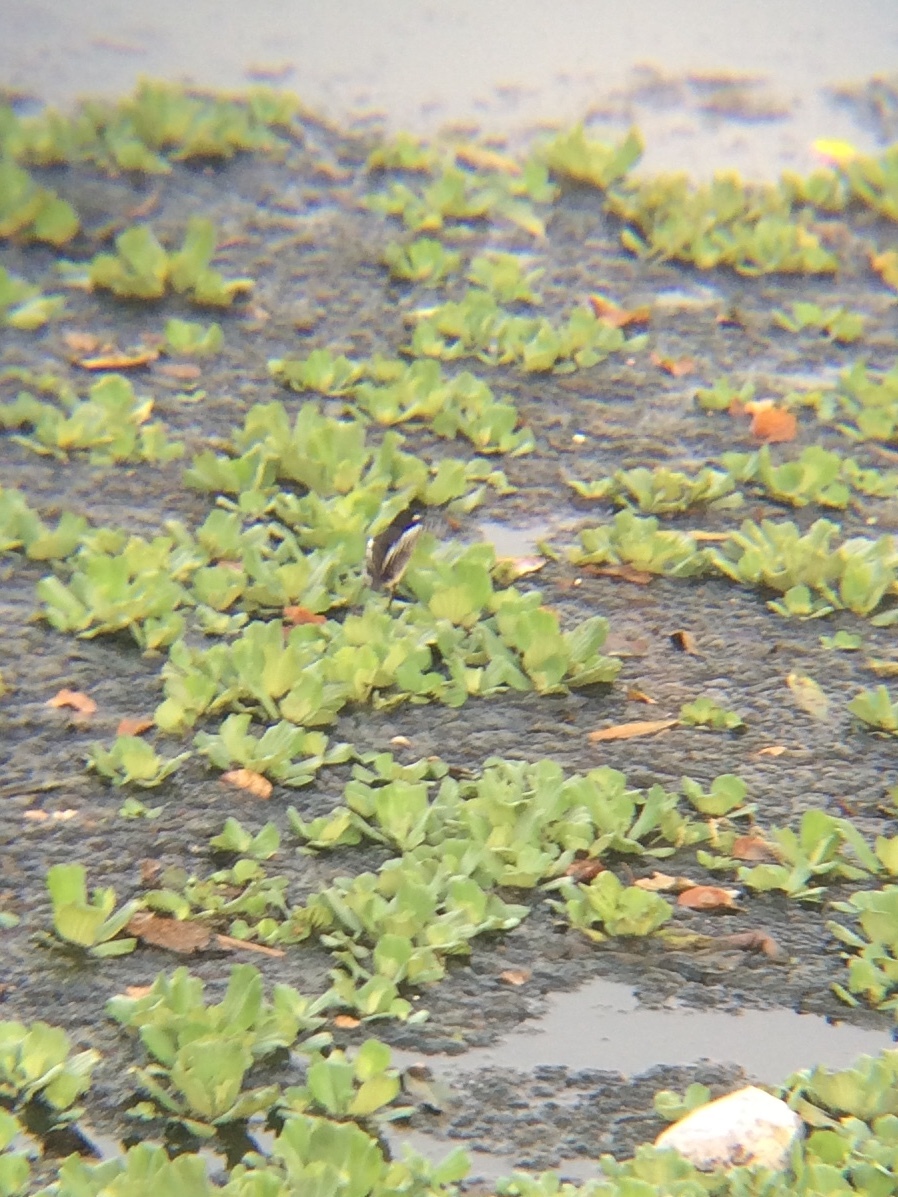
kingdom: Animalia
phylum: Chordata
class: Aves
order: Passeriformes
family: Motacillidae
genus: Motacilla
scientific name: Motacilla maderaspatensis
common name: White-browed wagtail
